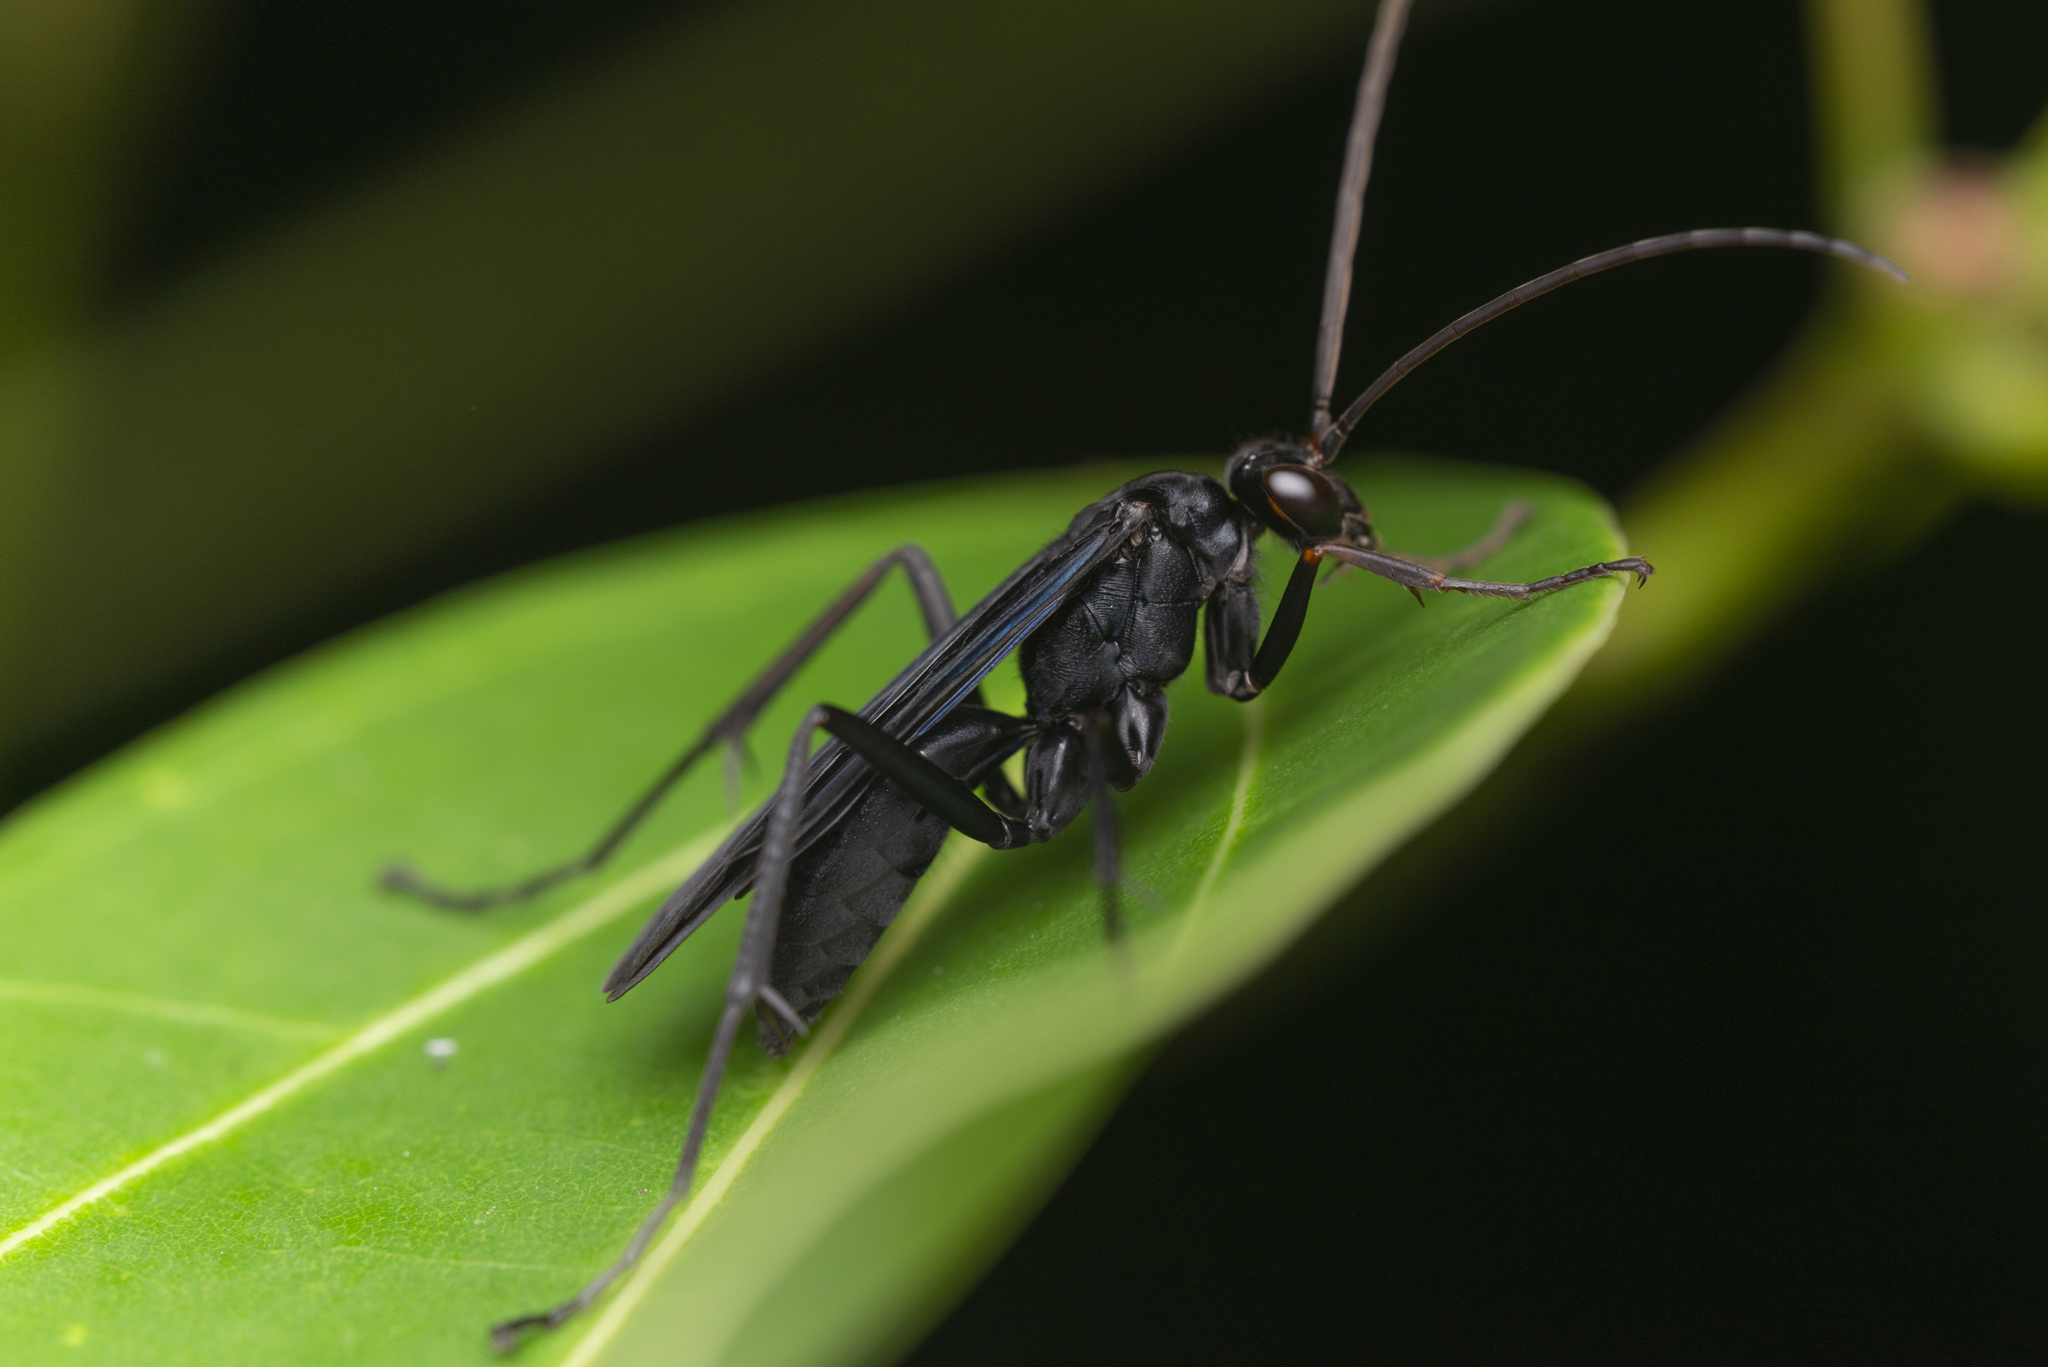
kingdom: Animalia
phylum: Arthropoda
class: Insecta
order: Hymenoptera
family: Pompilidae
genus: Cyphononyx
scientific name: Cyphononyx bipartitus
